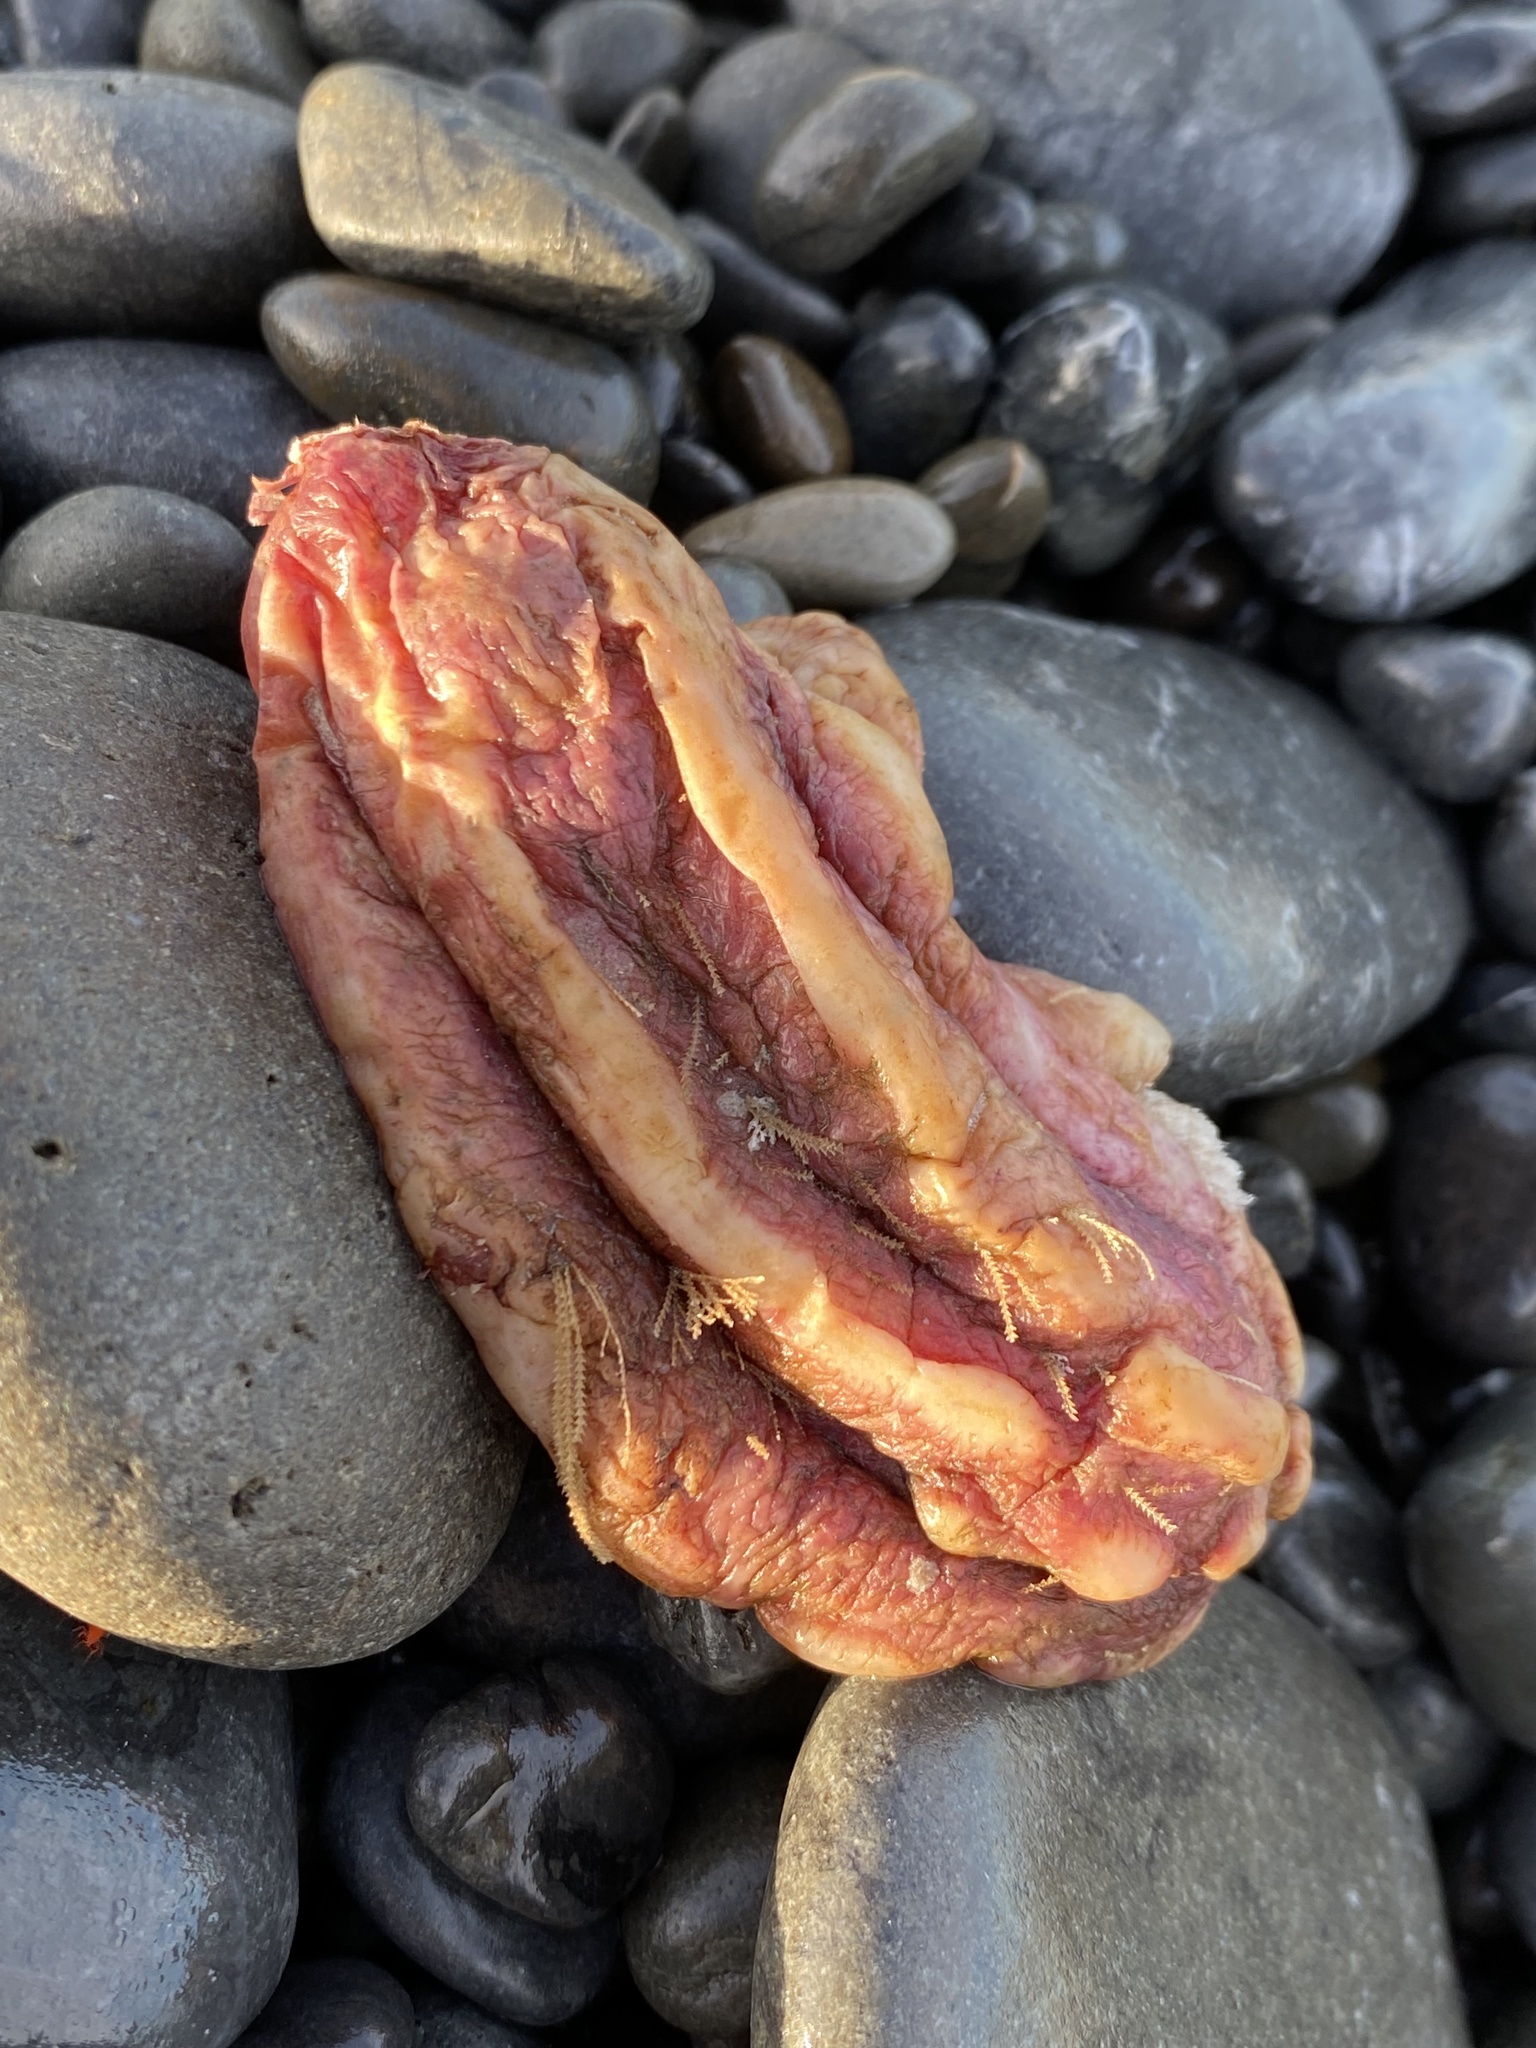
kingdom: Animalia
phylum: Chordata
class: Ascidiacea
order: Stolidobranchia
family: Pyuridae
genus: Pyura
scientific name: Pyura pachydermatina
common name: Sea tulip
